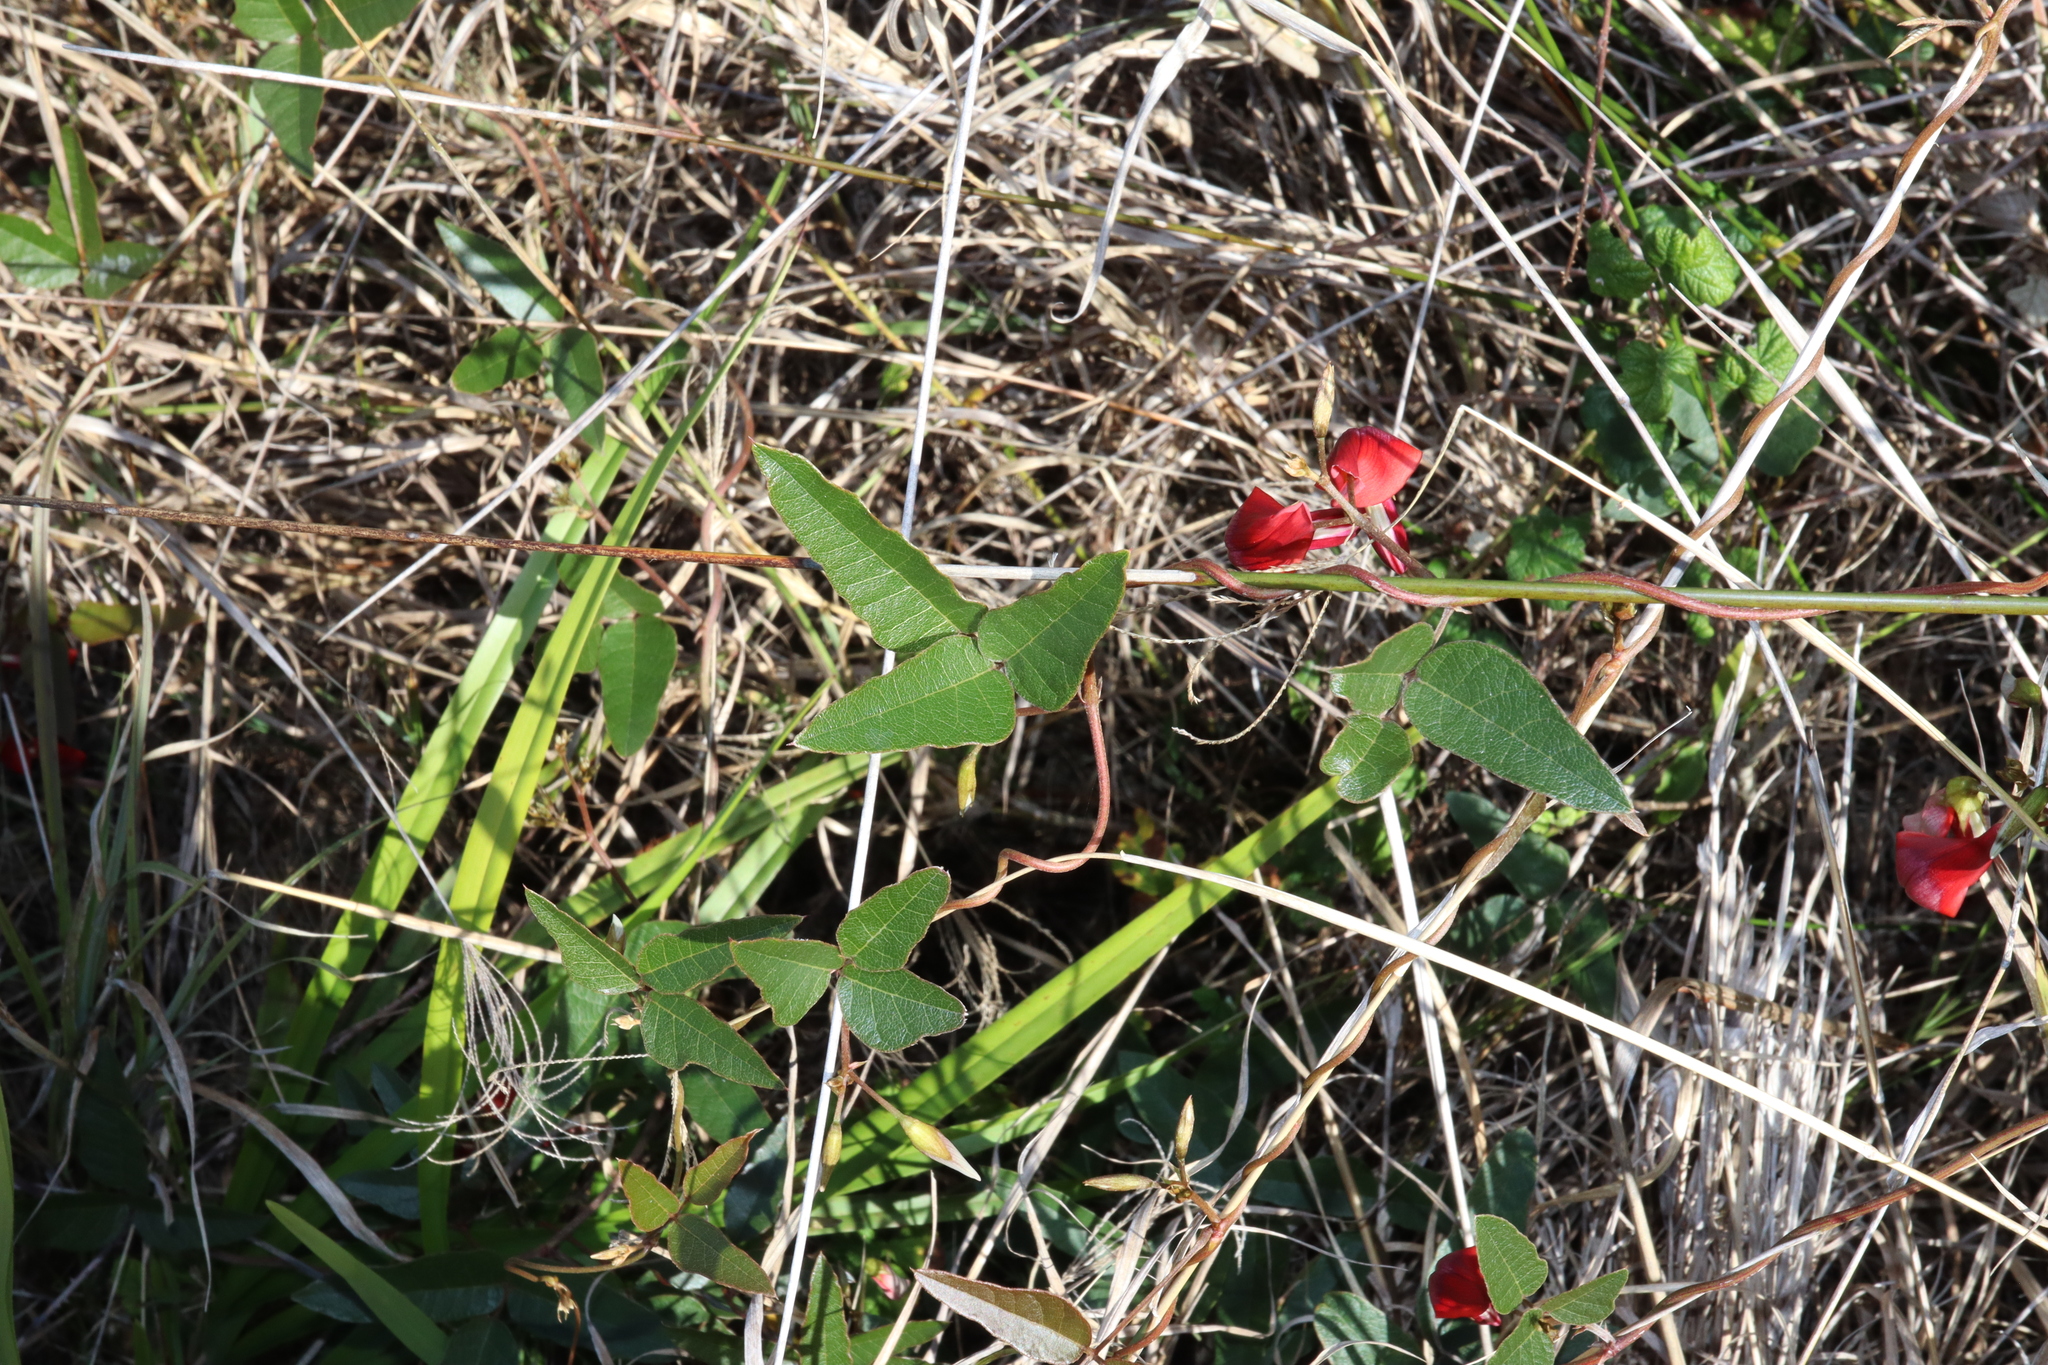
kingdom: Plantae
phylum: Tracheophyta
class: Magnoliopsida
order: Fabales
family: Fabaceae
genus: Kennedia
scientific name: Kennedia rubicunda
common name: Red kennedy-pea
